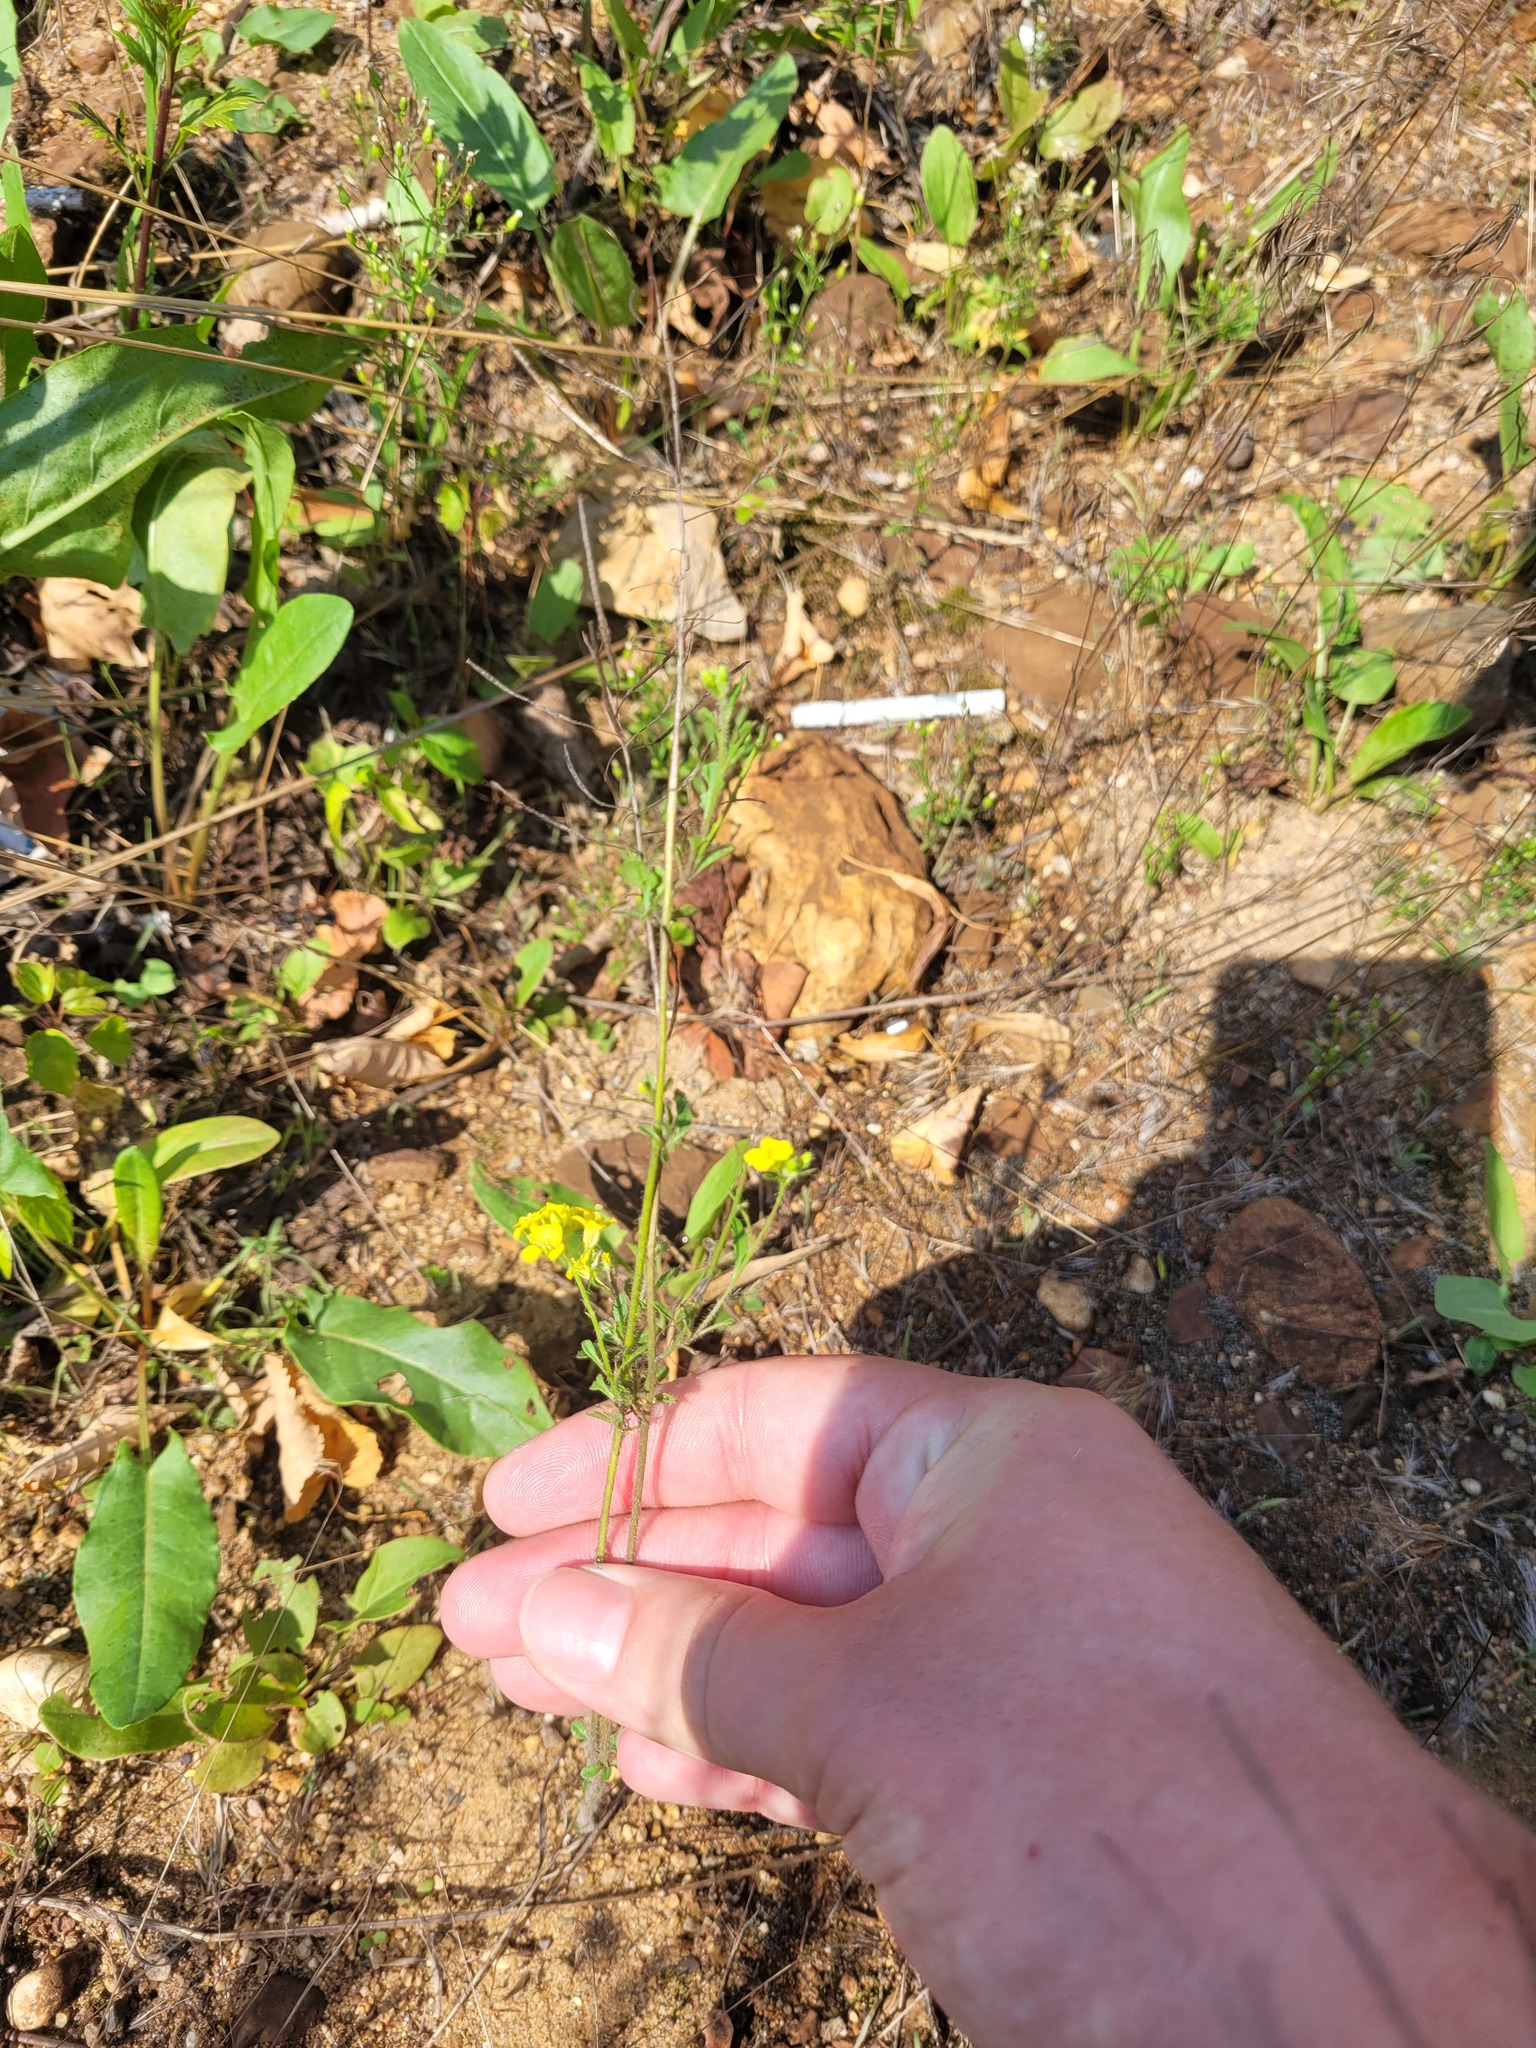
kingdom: Plantae
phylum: Tracheophyta
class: Magnoliopsida
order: Brassicales
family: Brassicaceae
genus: Sisymbrium
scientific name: Sisymbrium loeselii
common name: False london-rocket
